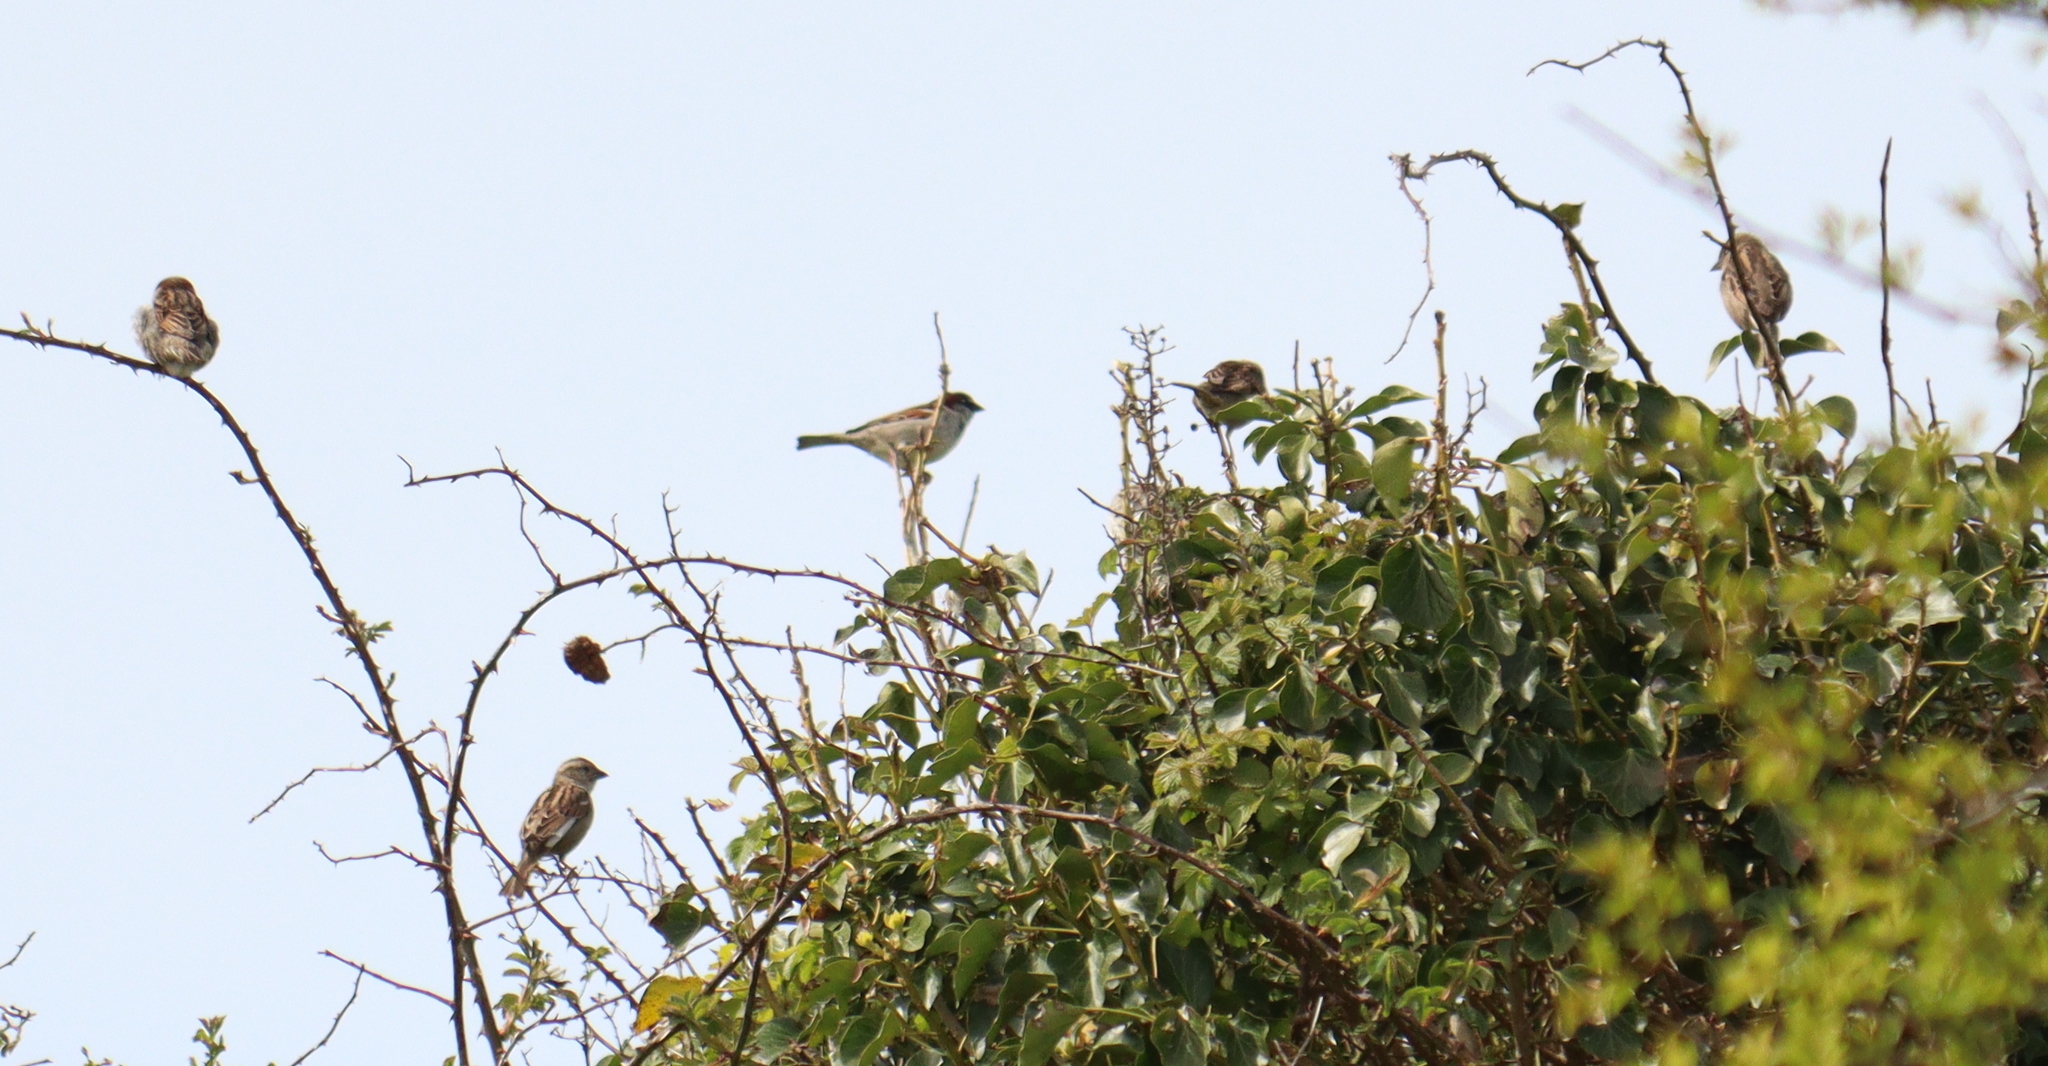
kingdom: Animalia
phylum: Chordata
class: Aves
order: Passeriformes
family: Passeridae
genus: Passer
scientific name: Passer domesticus
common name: House sparrow
